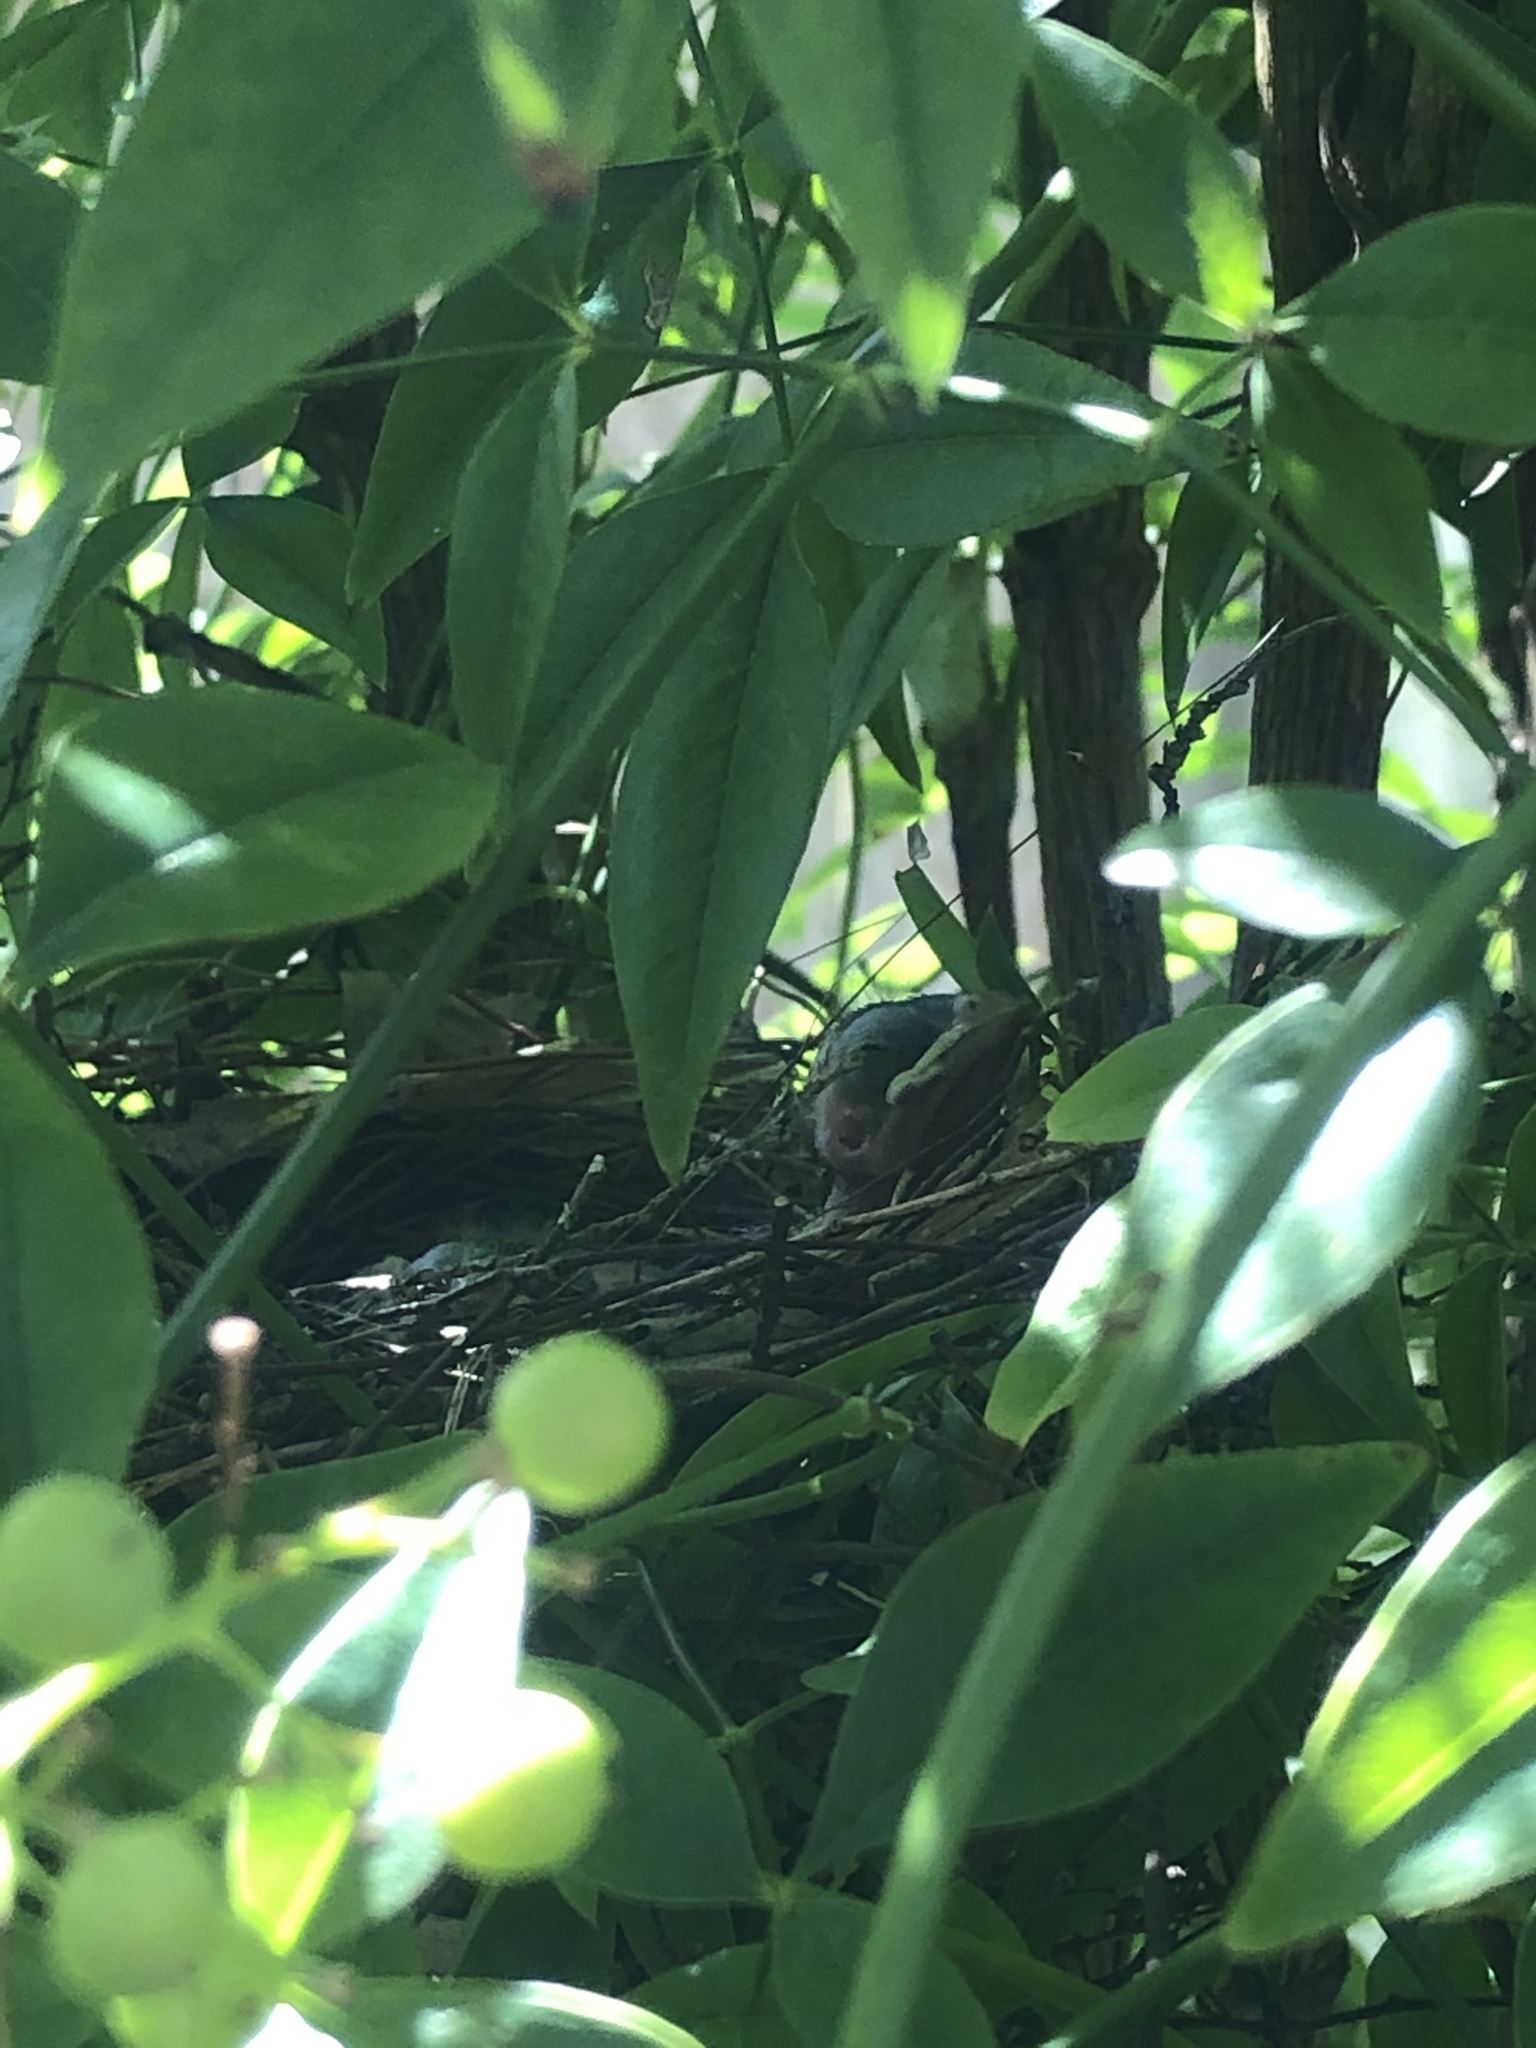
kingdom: Animalia
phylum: Chordata
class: Aves
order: Passeriformes
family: Cardinalidae
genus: Cardinalis
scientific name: Cardinalis cardinalis
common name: Northern cardinal
